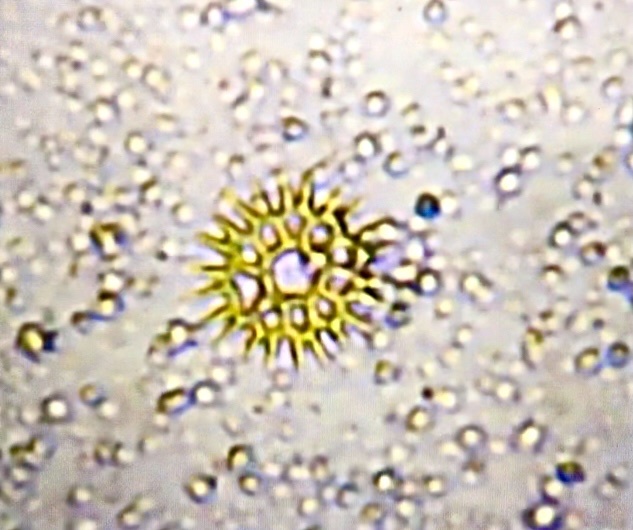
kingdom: Plantae
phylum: Chlorophyta
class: Chlorophyceae
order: Sphaeropleales
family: Hydrodictyaceae
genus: Lacunastrum
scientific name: Lacunastrum gracillimum
